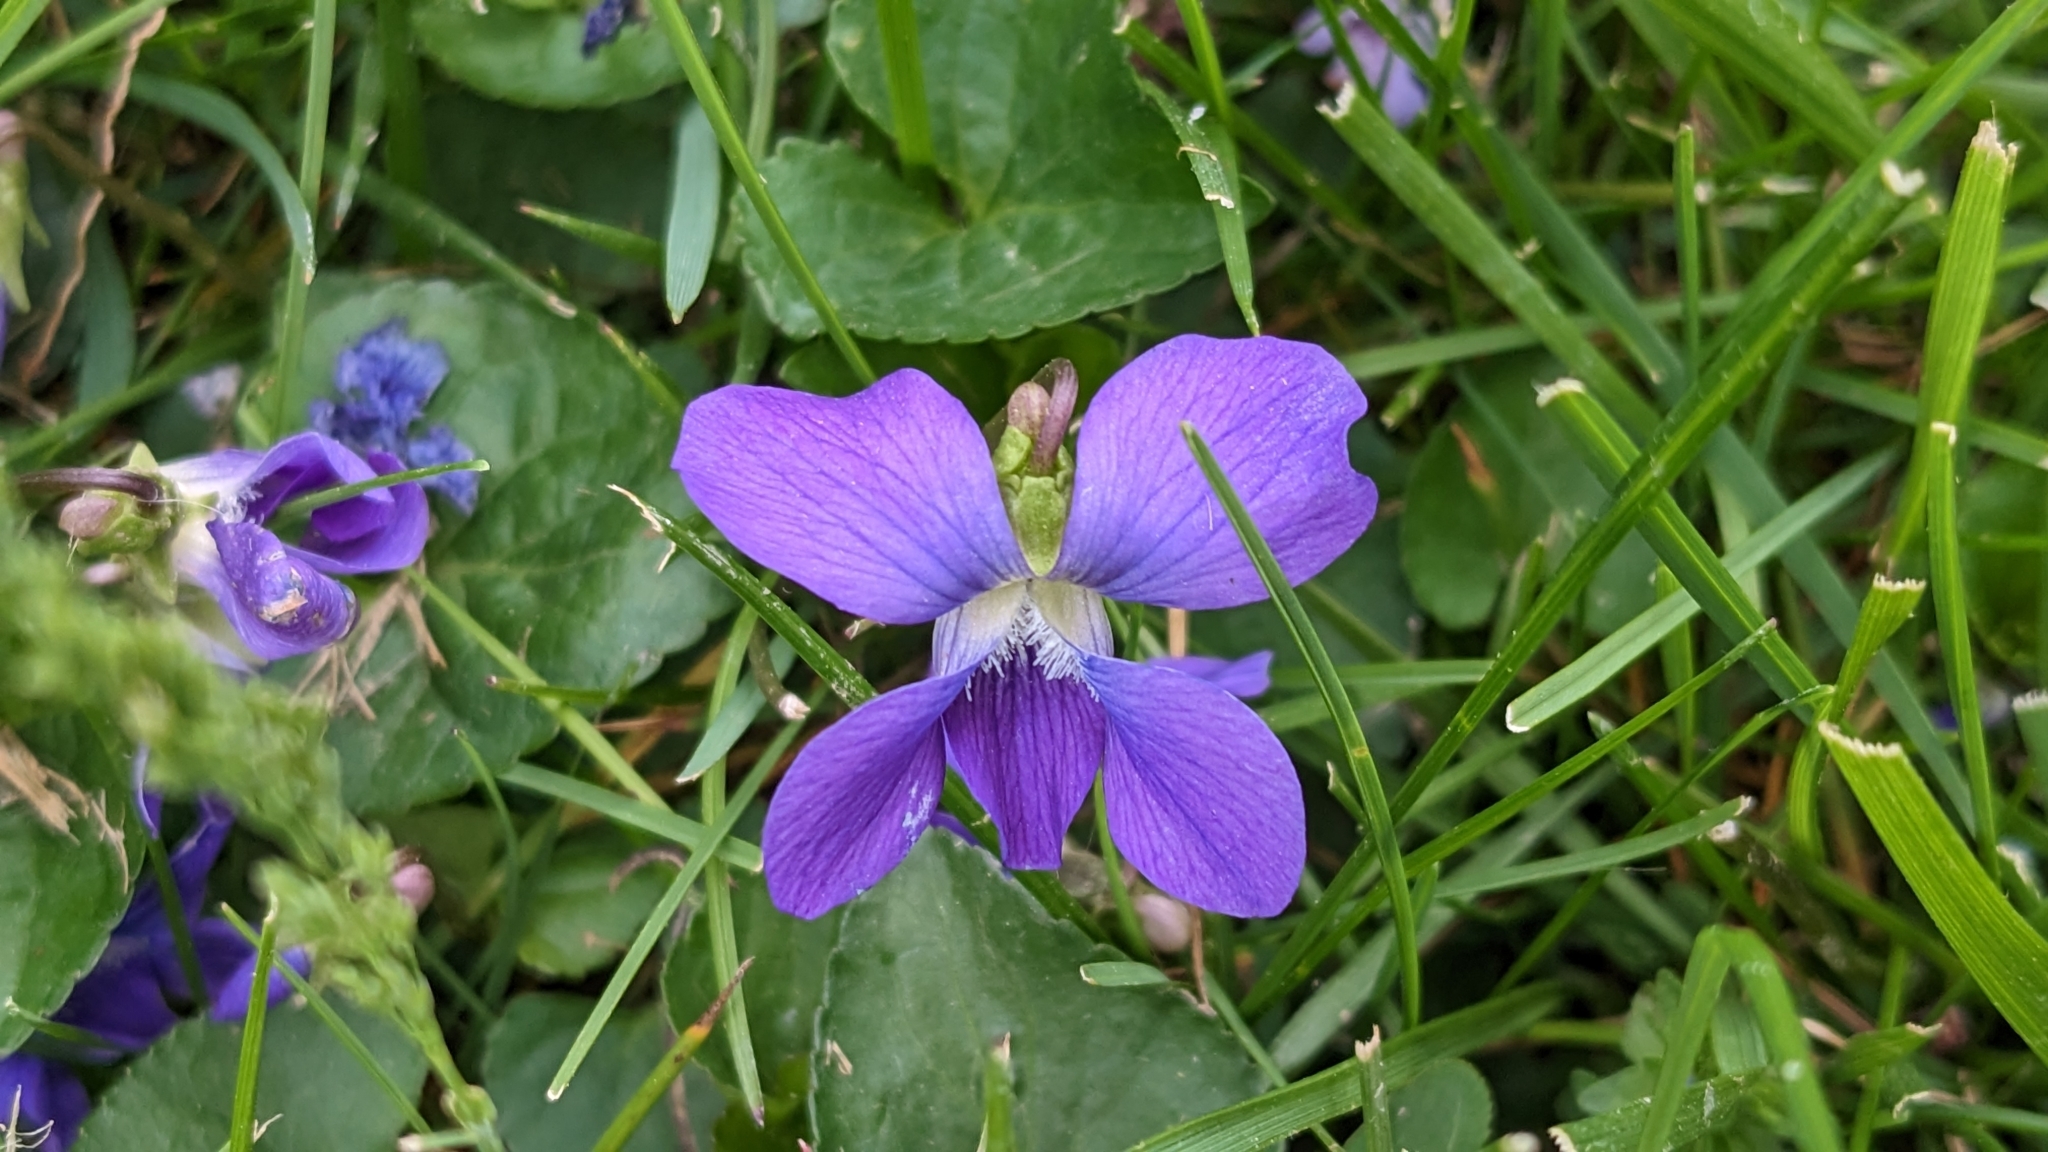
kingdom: Plantae
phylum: Tracheophyta
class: Magnoliopsida
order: Malpighiales
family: Violaceae
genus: Viola
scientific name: Viola sororia
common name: Dooryard violet
